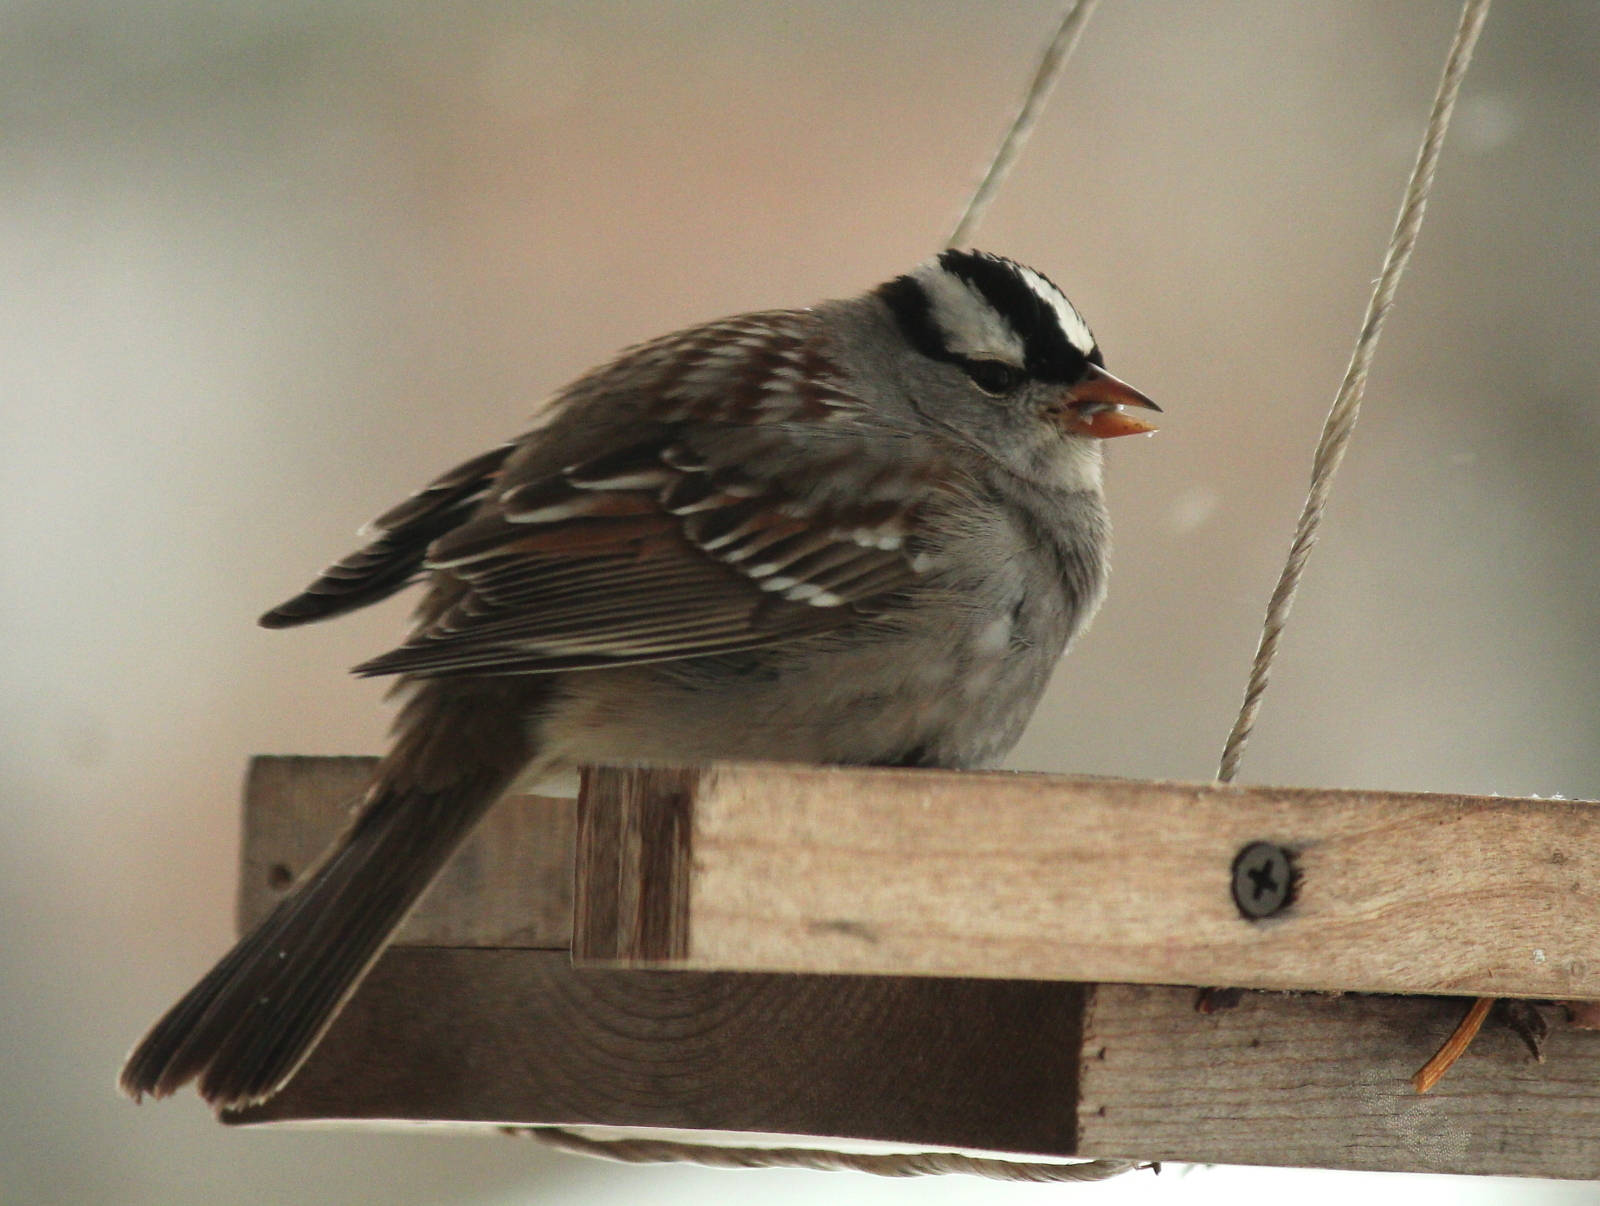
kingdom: Animalia
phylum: Chordata
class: Aves
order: Passeriformes
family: Passerellidae
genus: Zonotrichia
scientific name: Zonotrichia leucophrys
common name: White-crowned sparrow
